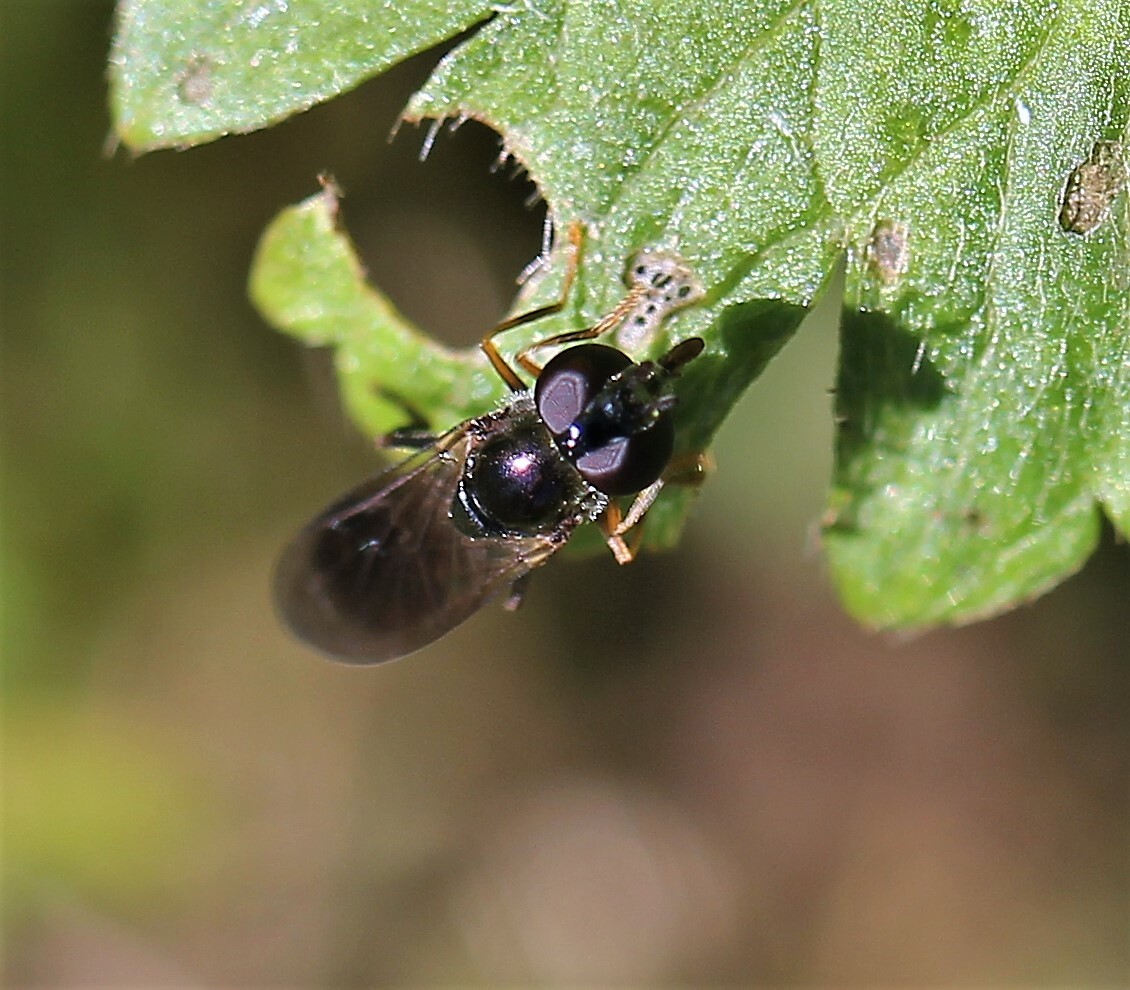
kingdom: Animalia
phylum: Arthropoda
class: Insecta
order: Diptera
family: Syrphidae
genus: Pyrophaena
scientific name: Pyrophaena rosarum
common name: Fourspot sedgesitter
